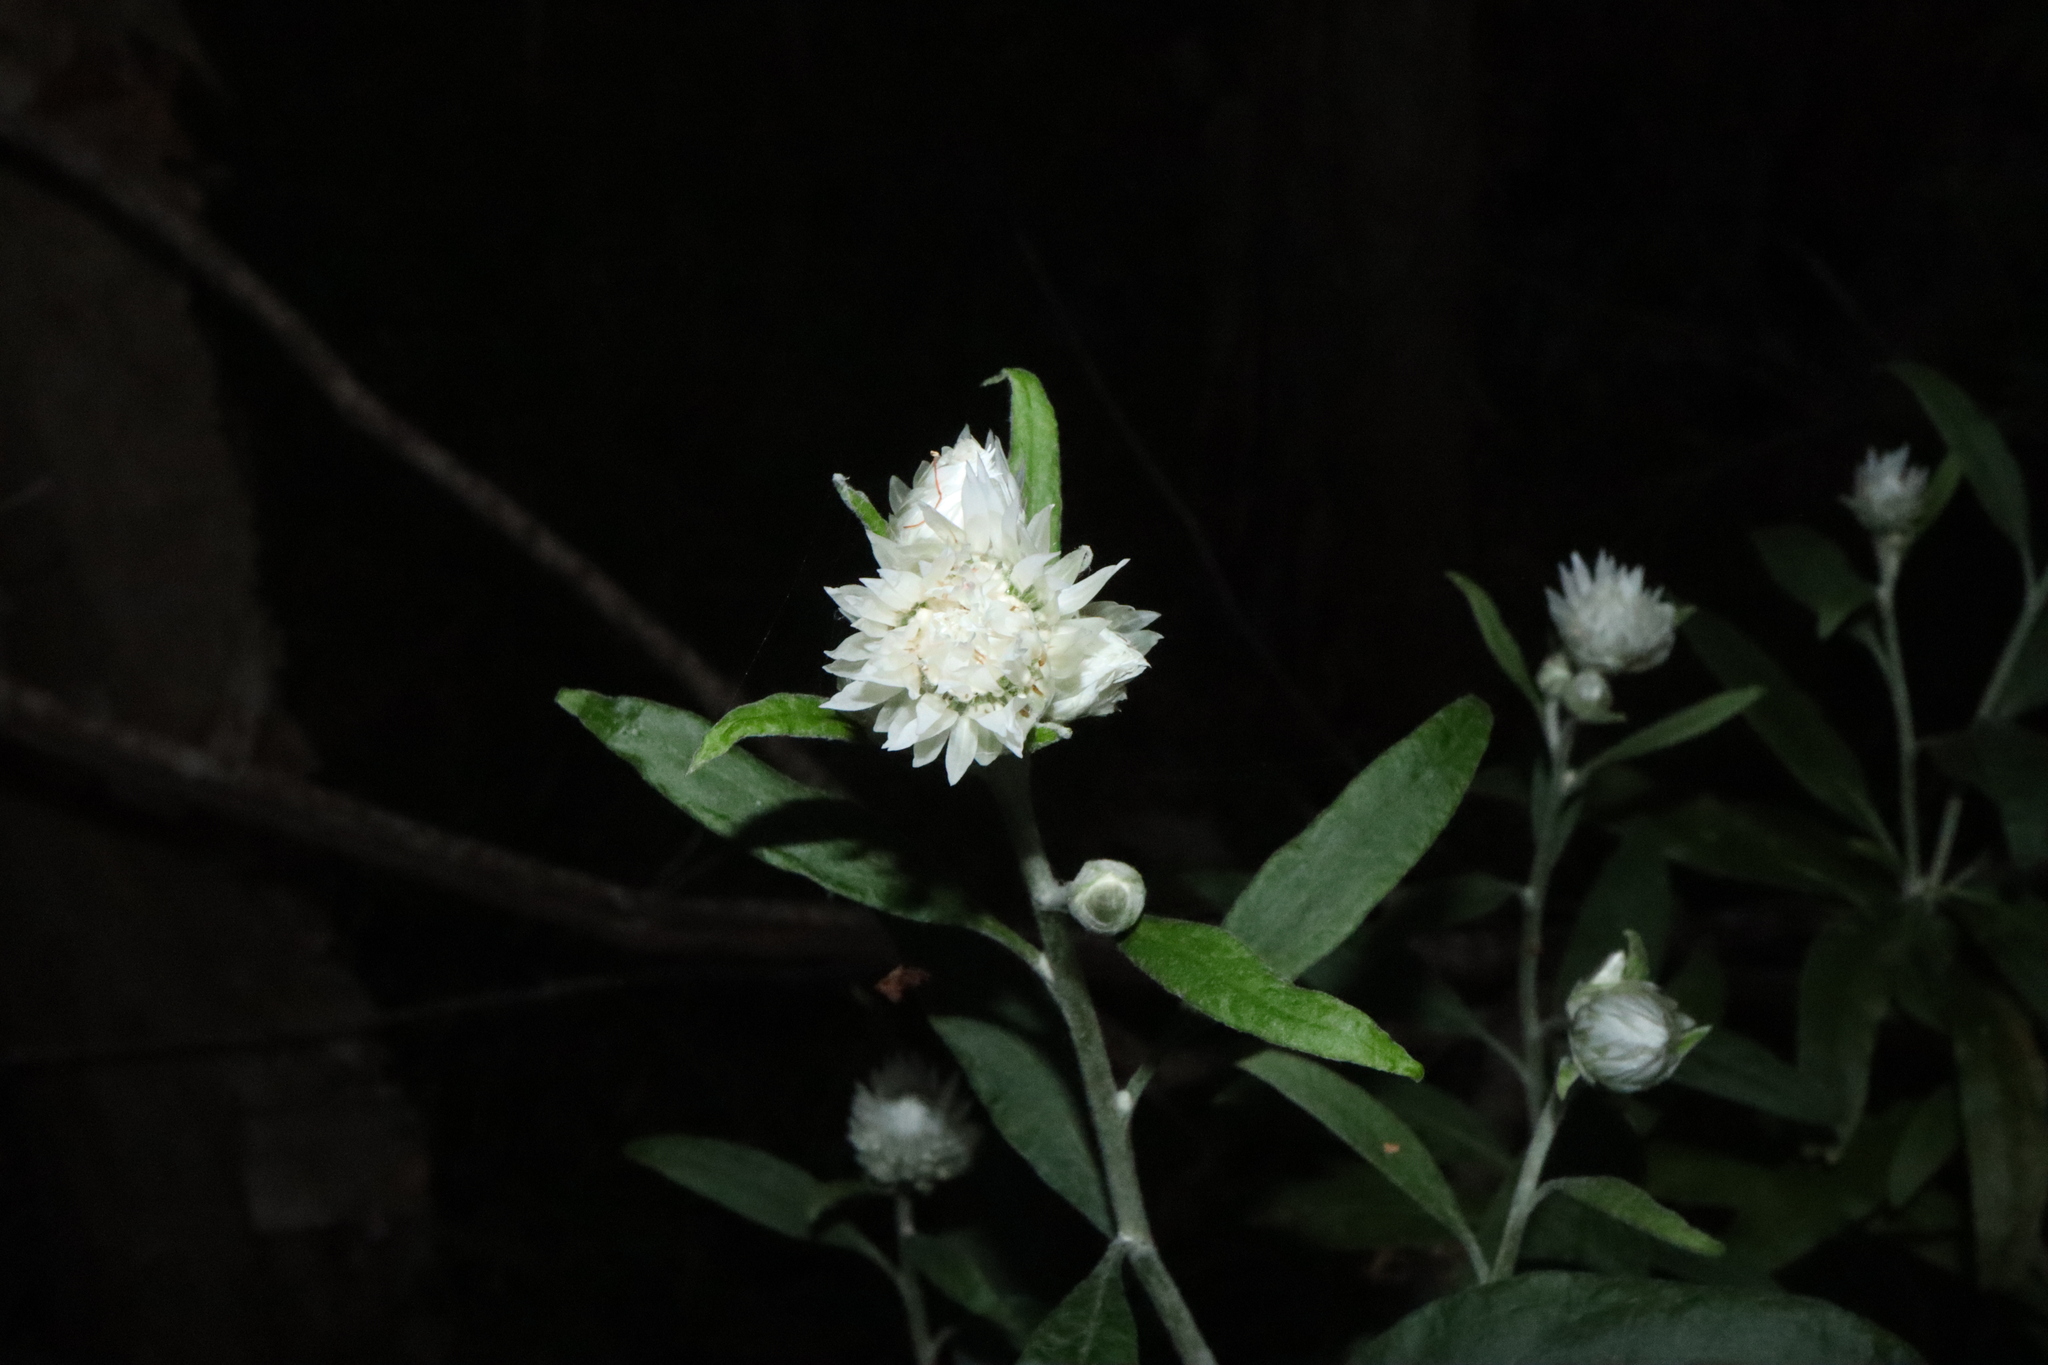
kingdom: Plantae
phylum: Tracheophyta
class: Magnoliopsida
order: Asterales
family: Asteraceae
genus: Leucozoma
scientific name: Leucozoma elatum
